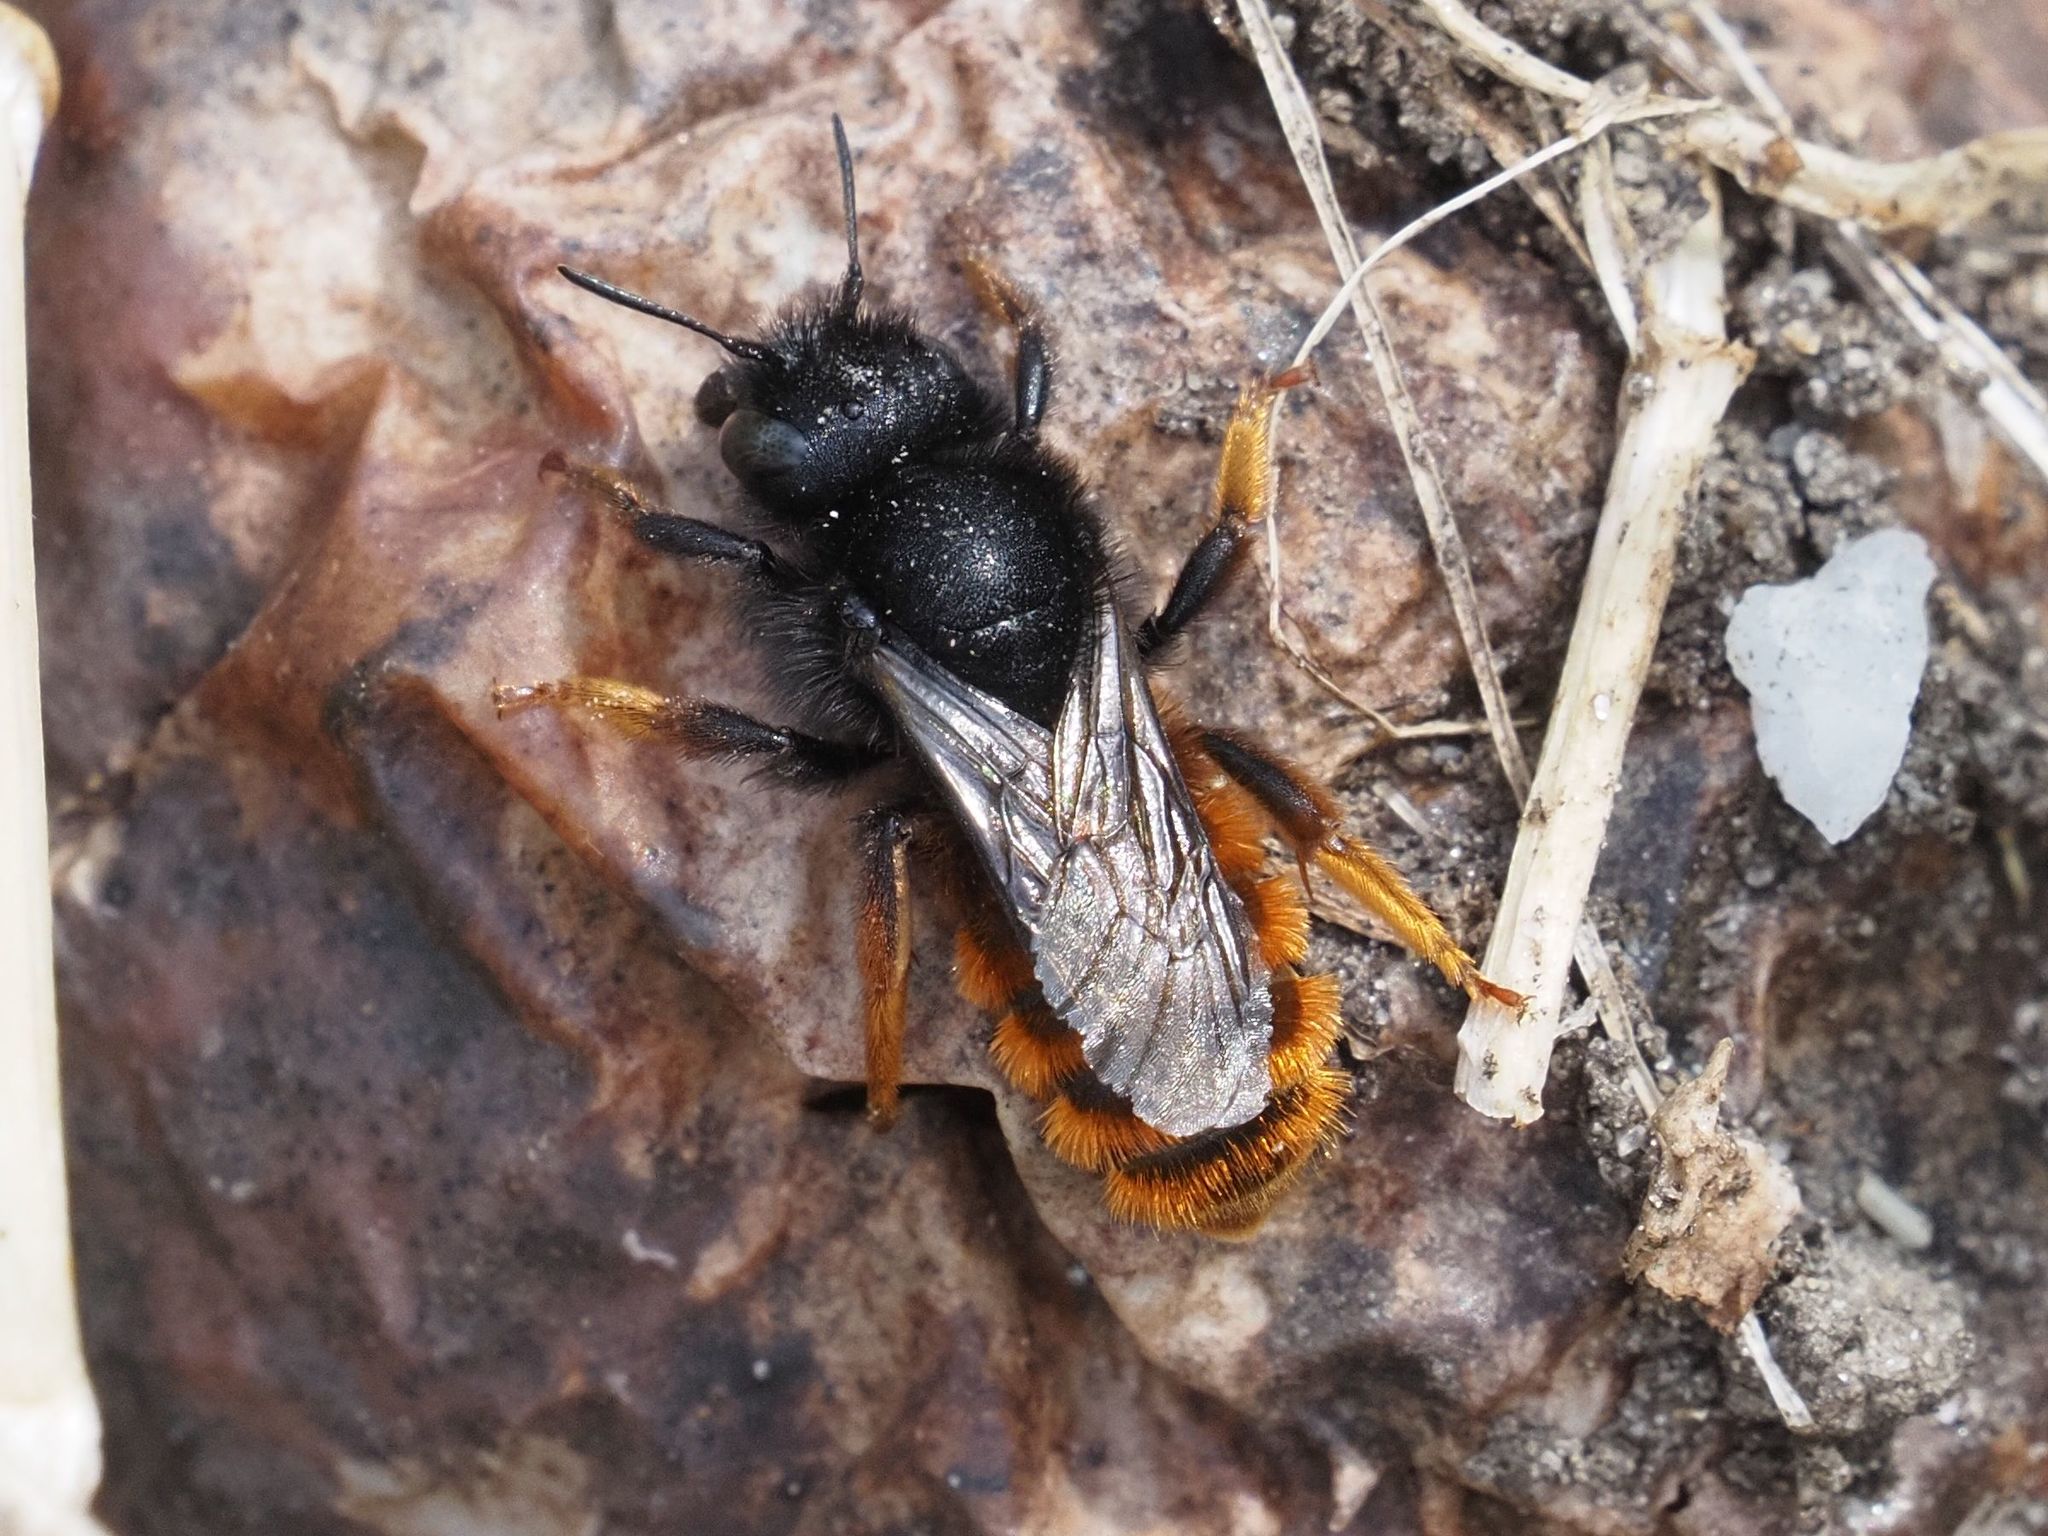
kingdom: Animalia
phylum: Arthropoda
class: Insecta
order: Hymenoptera
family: Megachilidae
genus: Osmia
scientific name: Osmia bicolor
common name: Red-tailed mason bee
